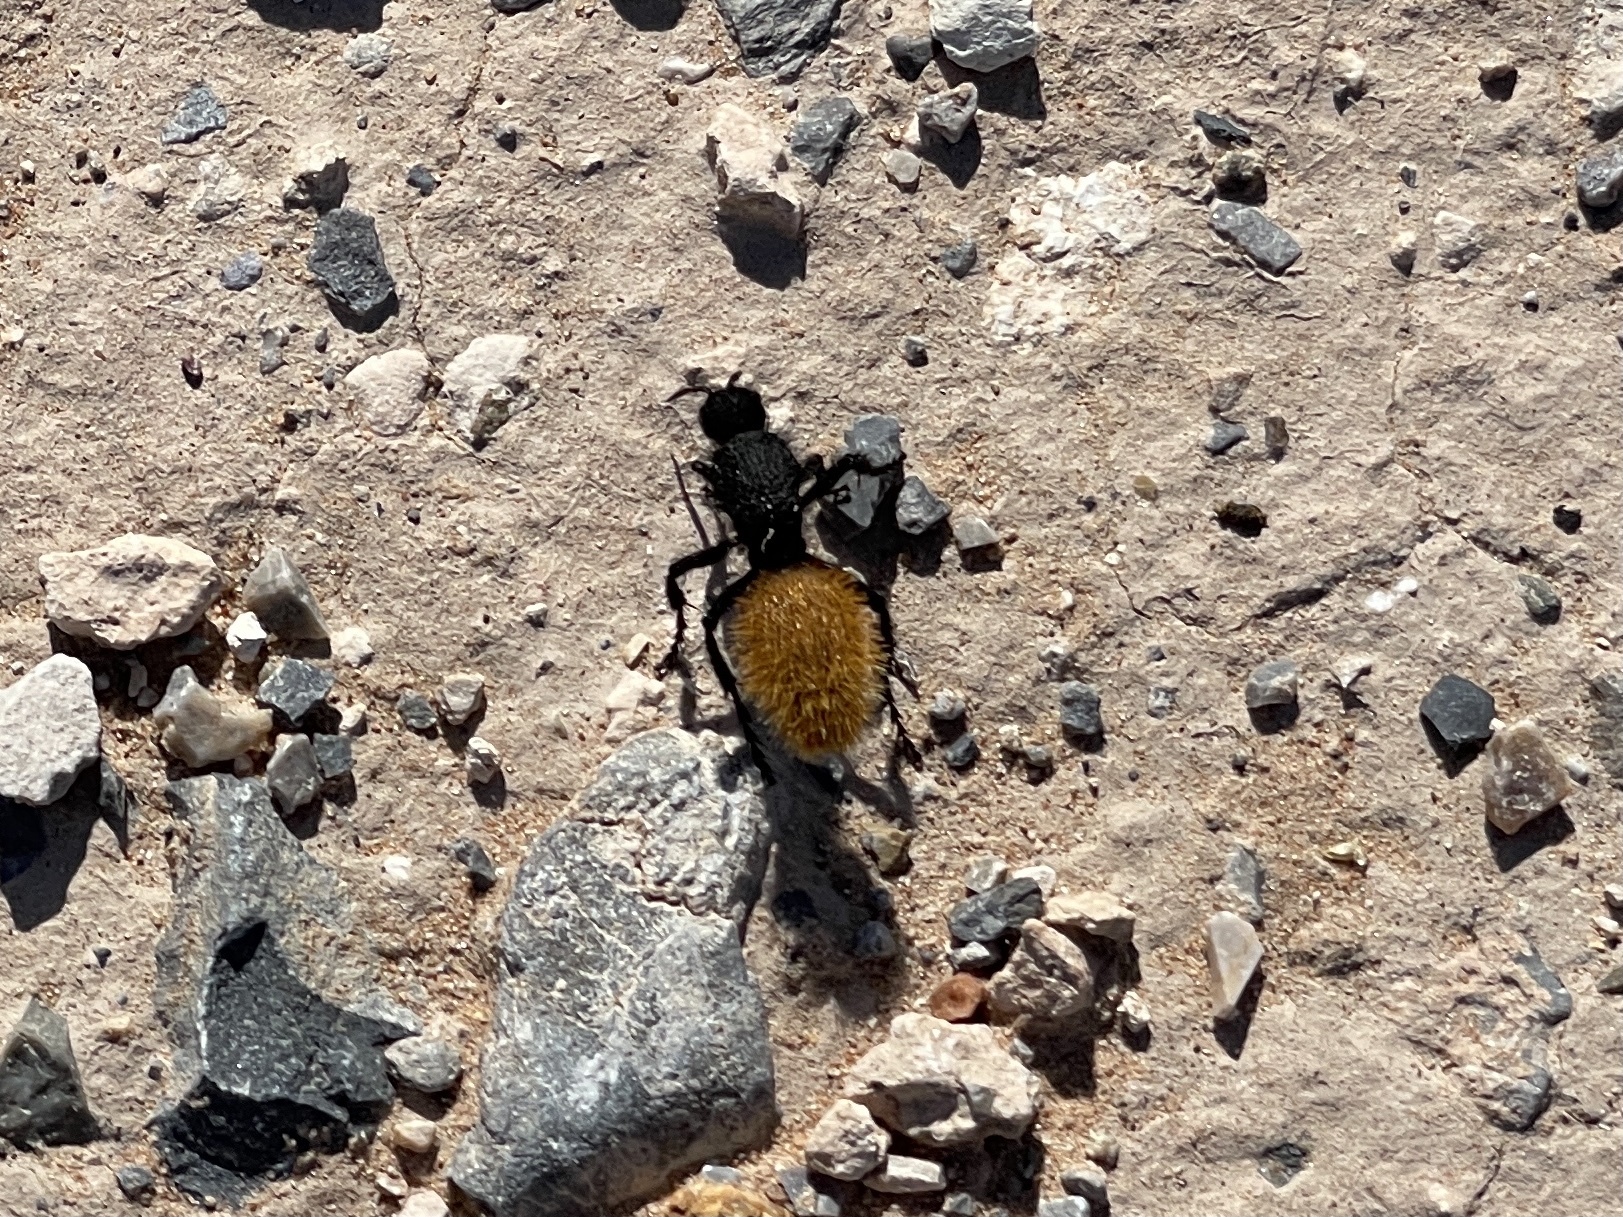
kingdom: Animalia
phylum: Arthropoda
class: Insecta
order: Hymenoptera
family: Mutillidae
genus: Dasymutilla
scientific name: Dasymutilla
